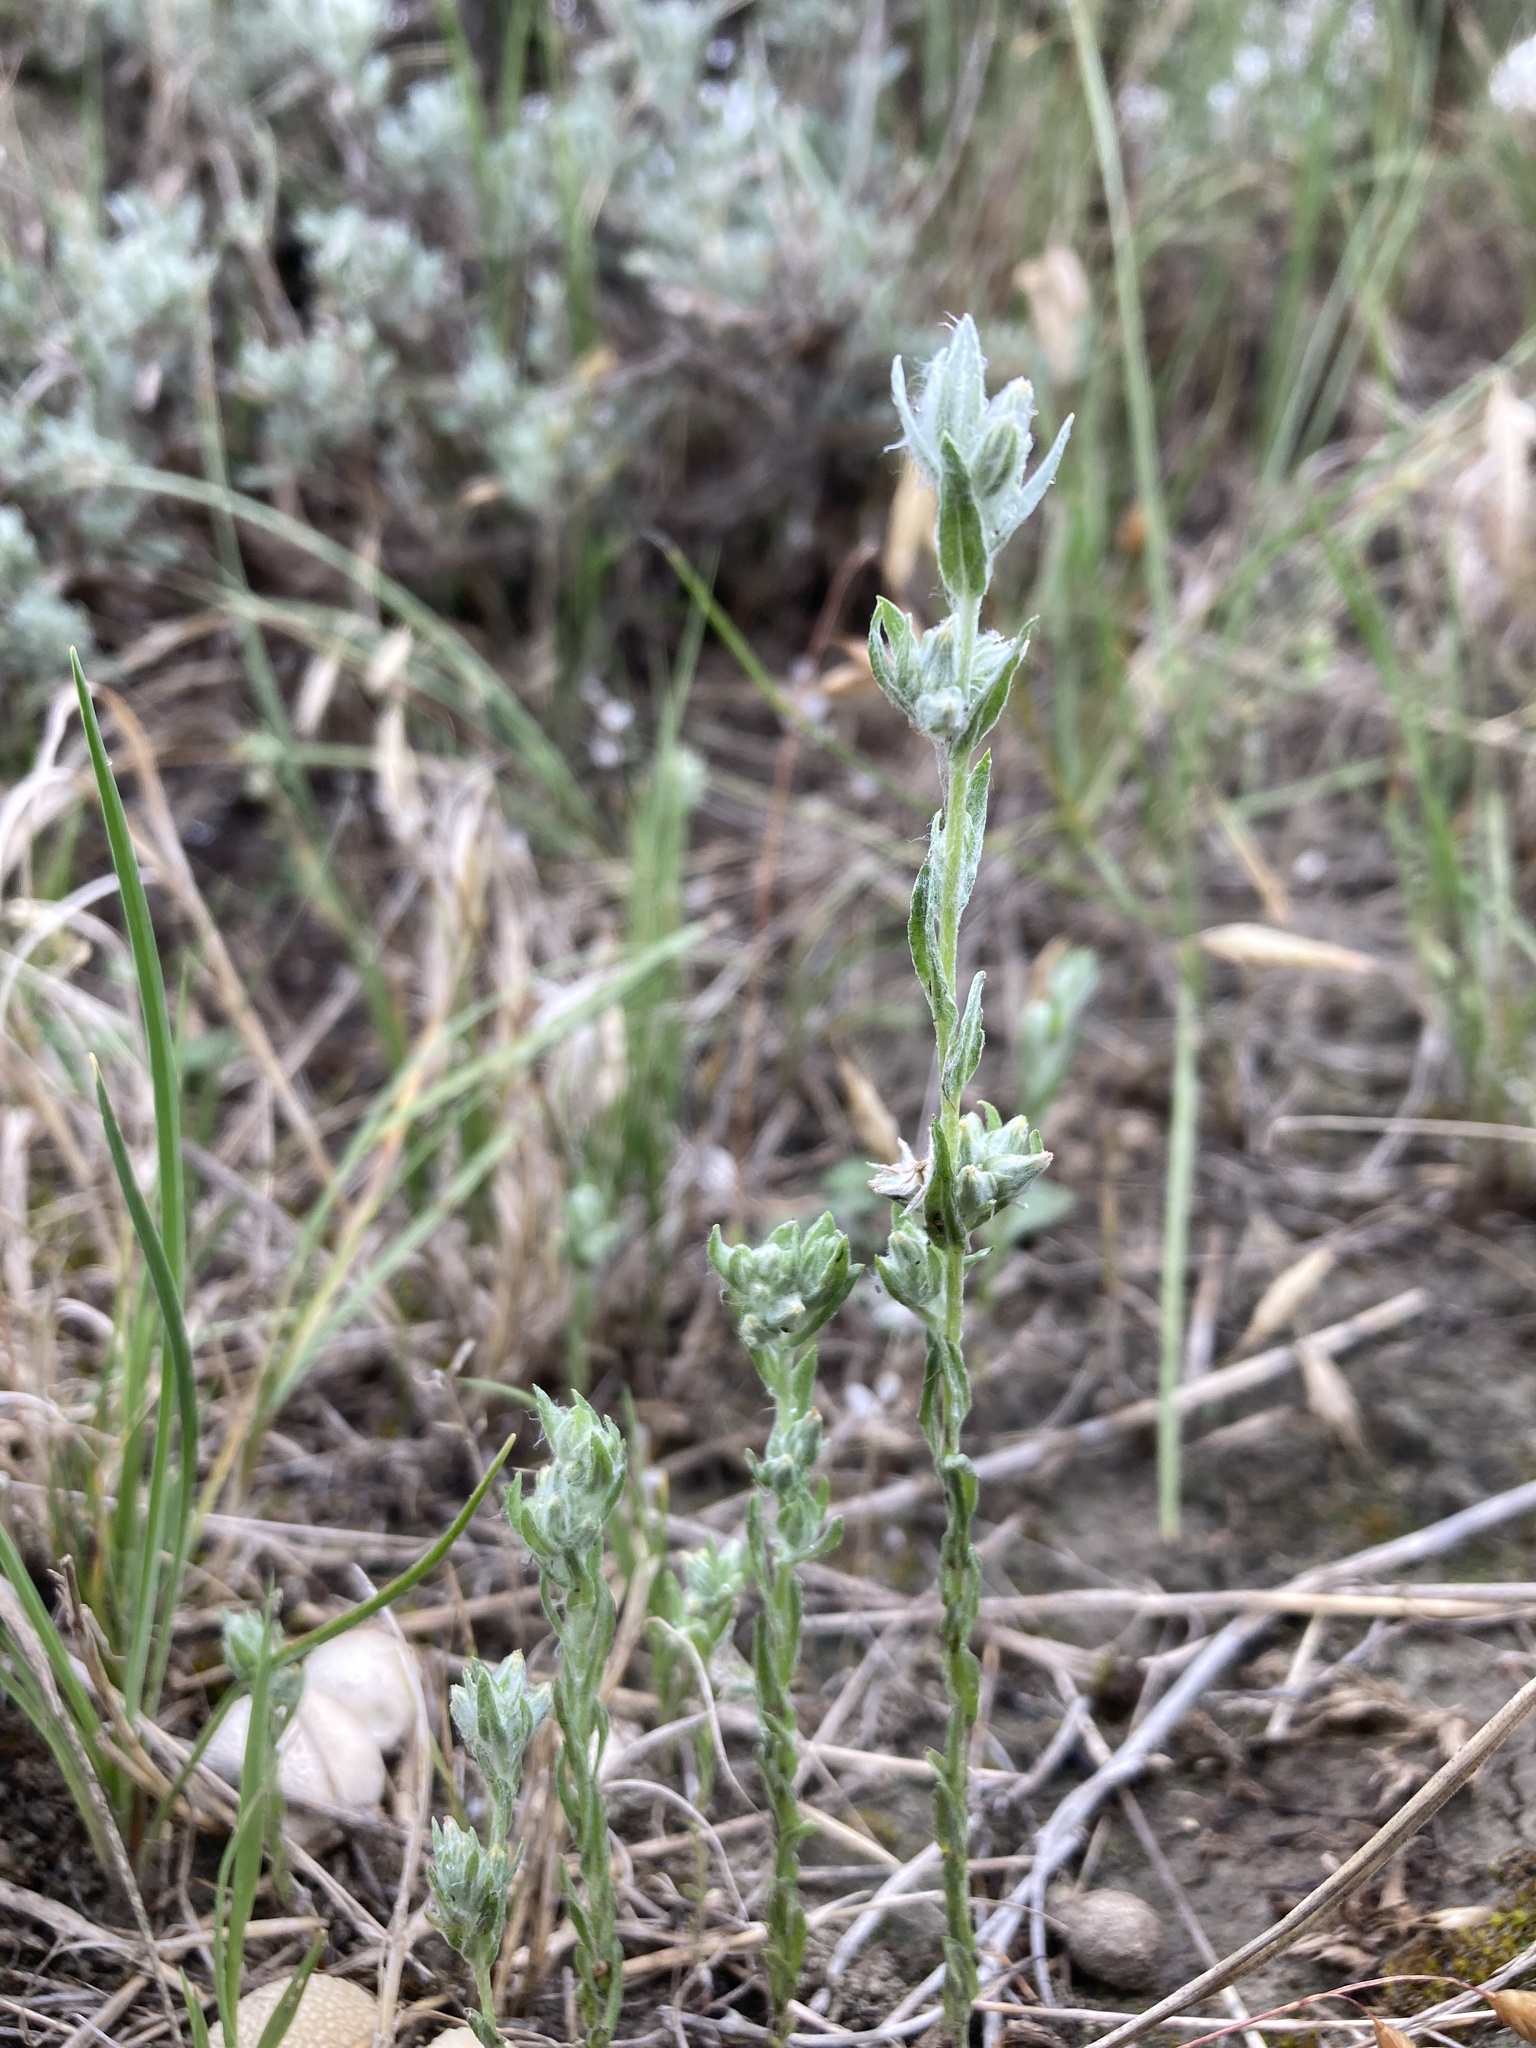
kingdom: Plantae
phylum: Tracheophyta
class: Magnoliopsida
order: Asterales
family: Asteraceae
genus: Filago
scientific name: Filago arvensis
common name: Field cudweed
